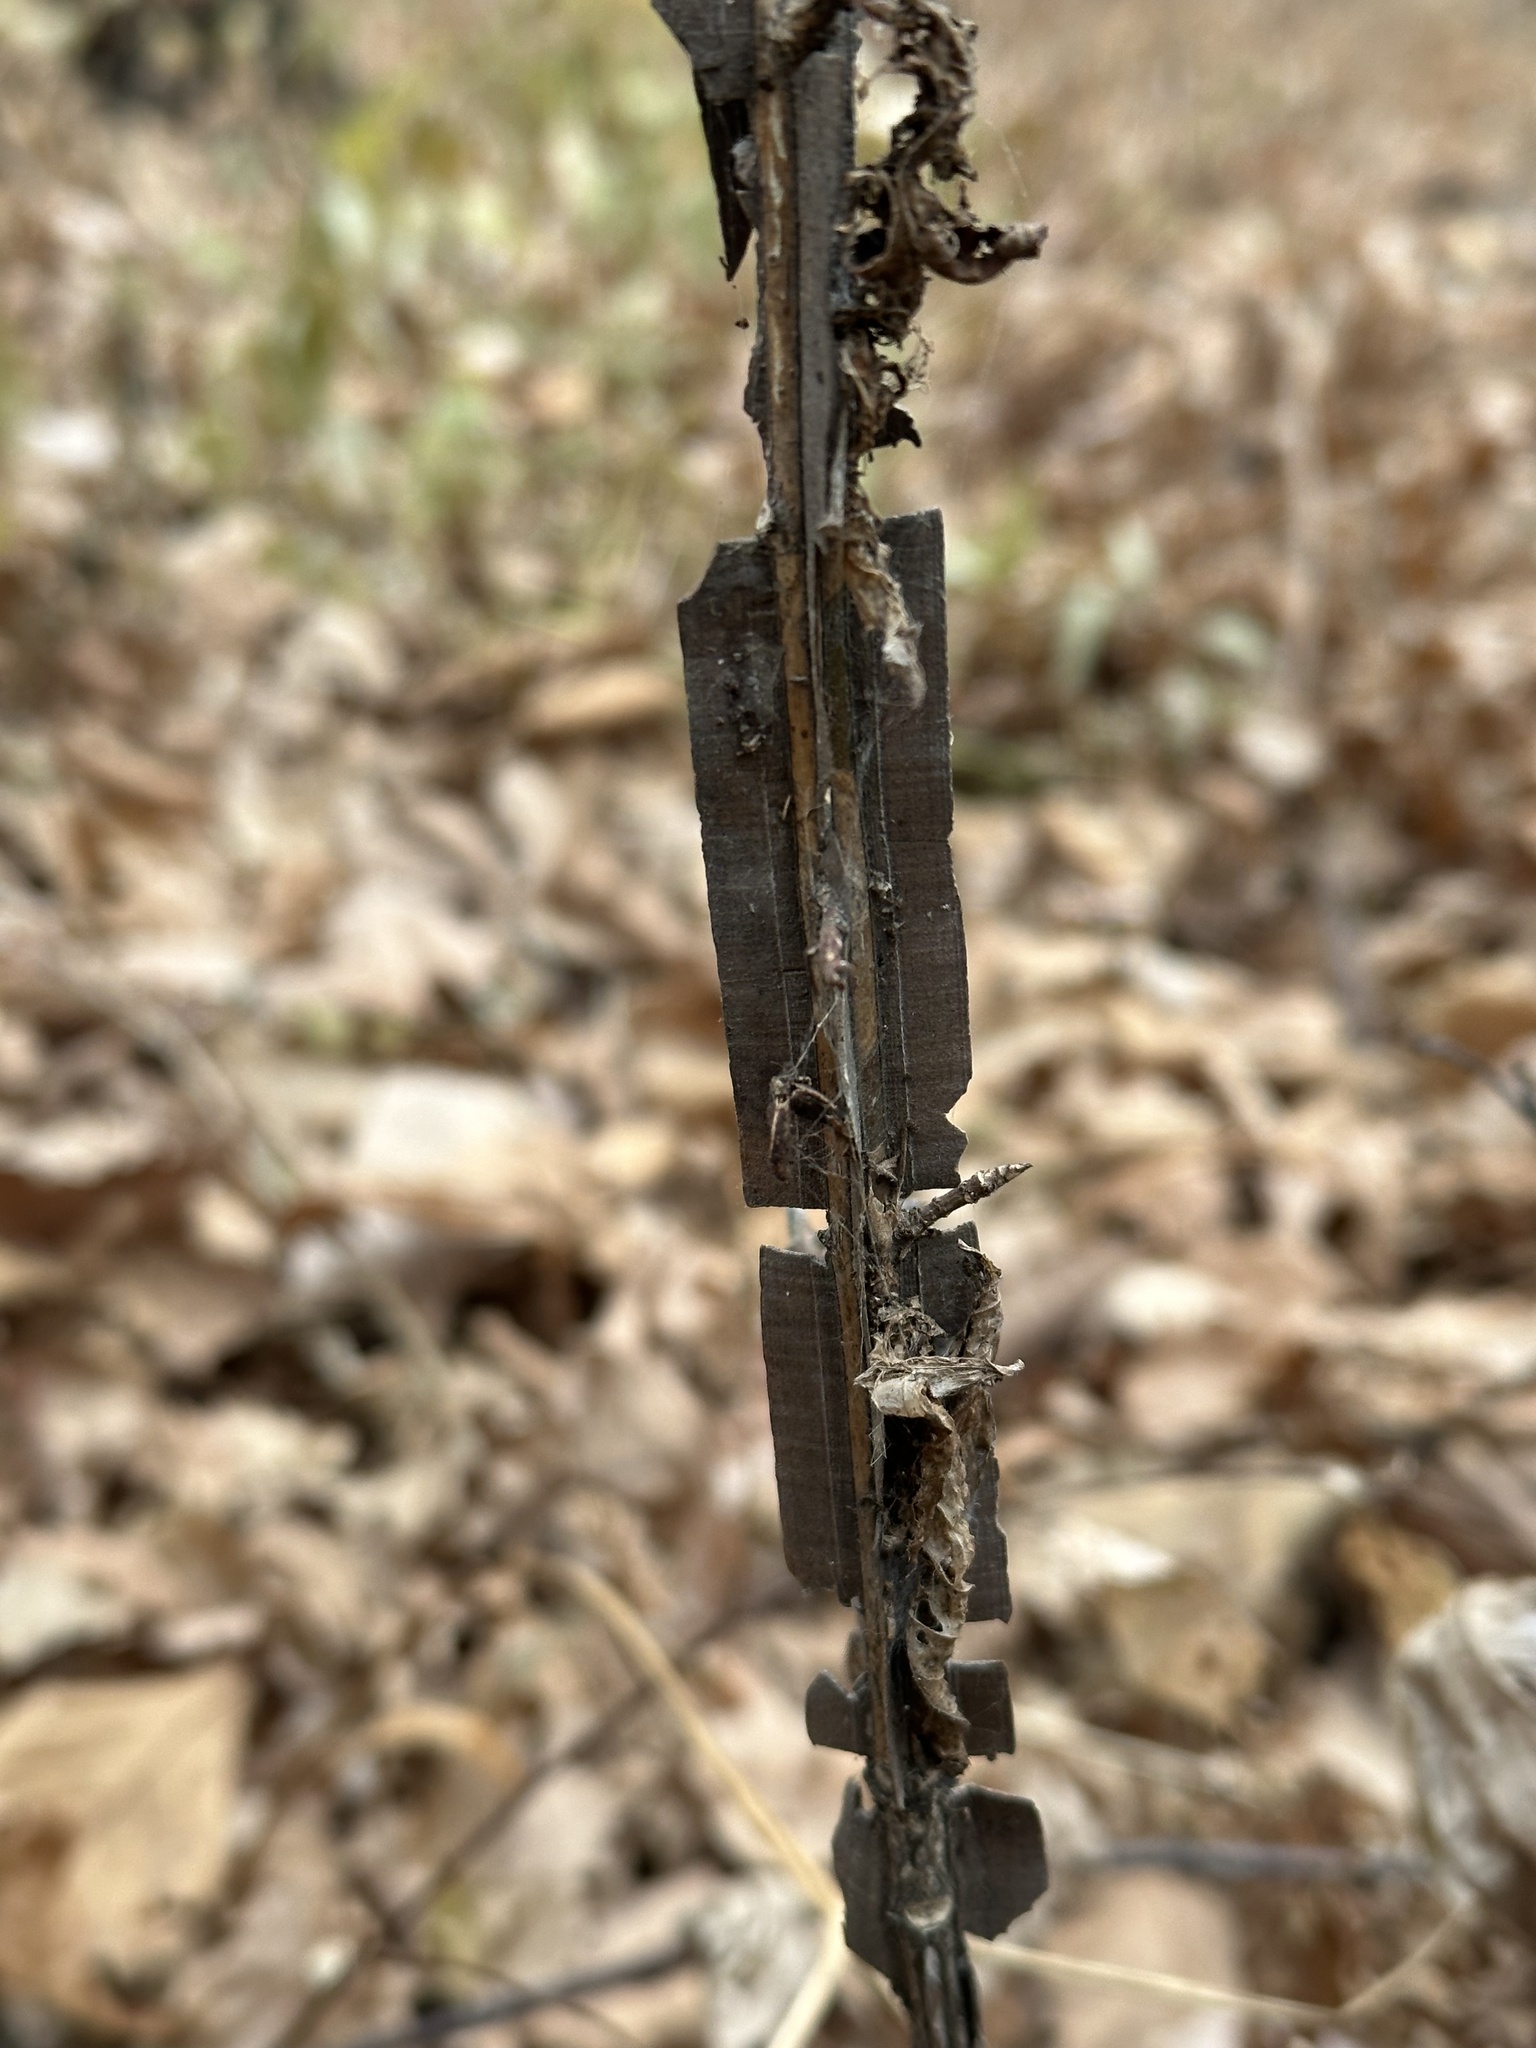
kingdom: Plantae
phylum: Tracheophyta
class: Magnoliopsida
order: Celastrales
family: Celastraceae
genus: Euonymus
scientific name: Euonymus alatus
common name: Winged euonymus
